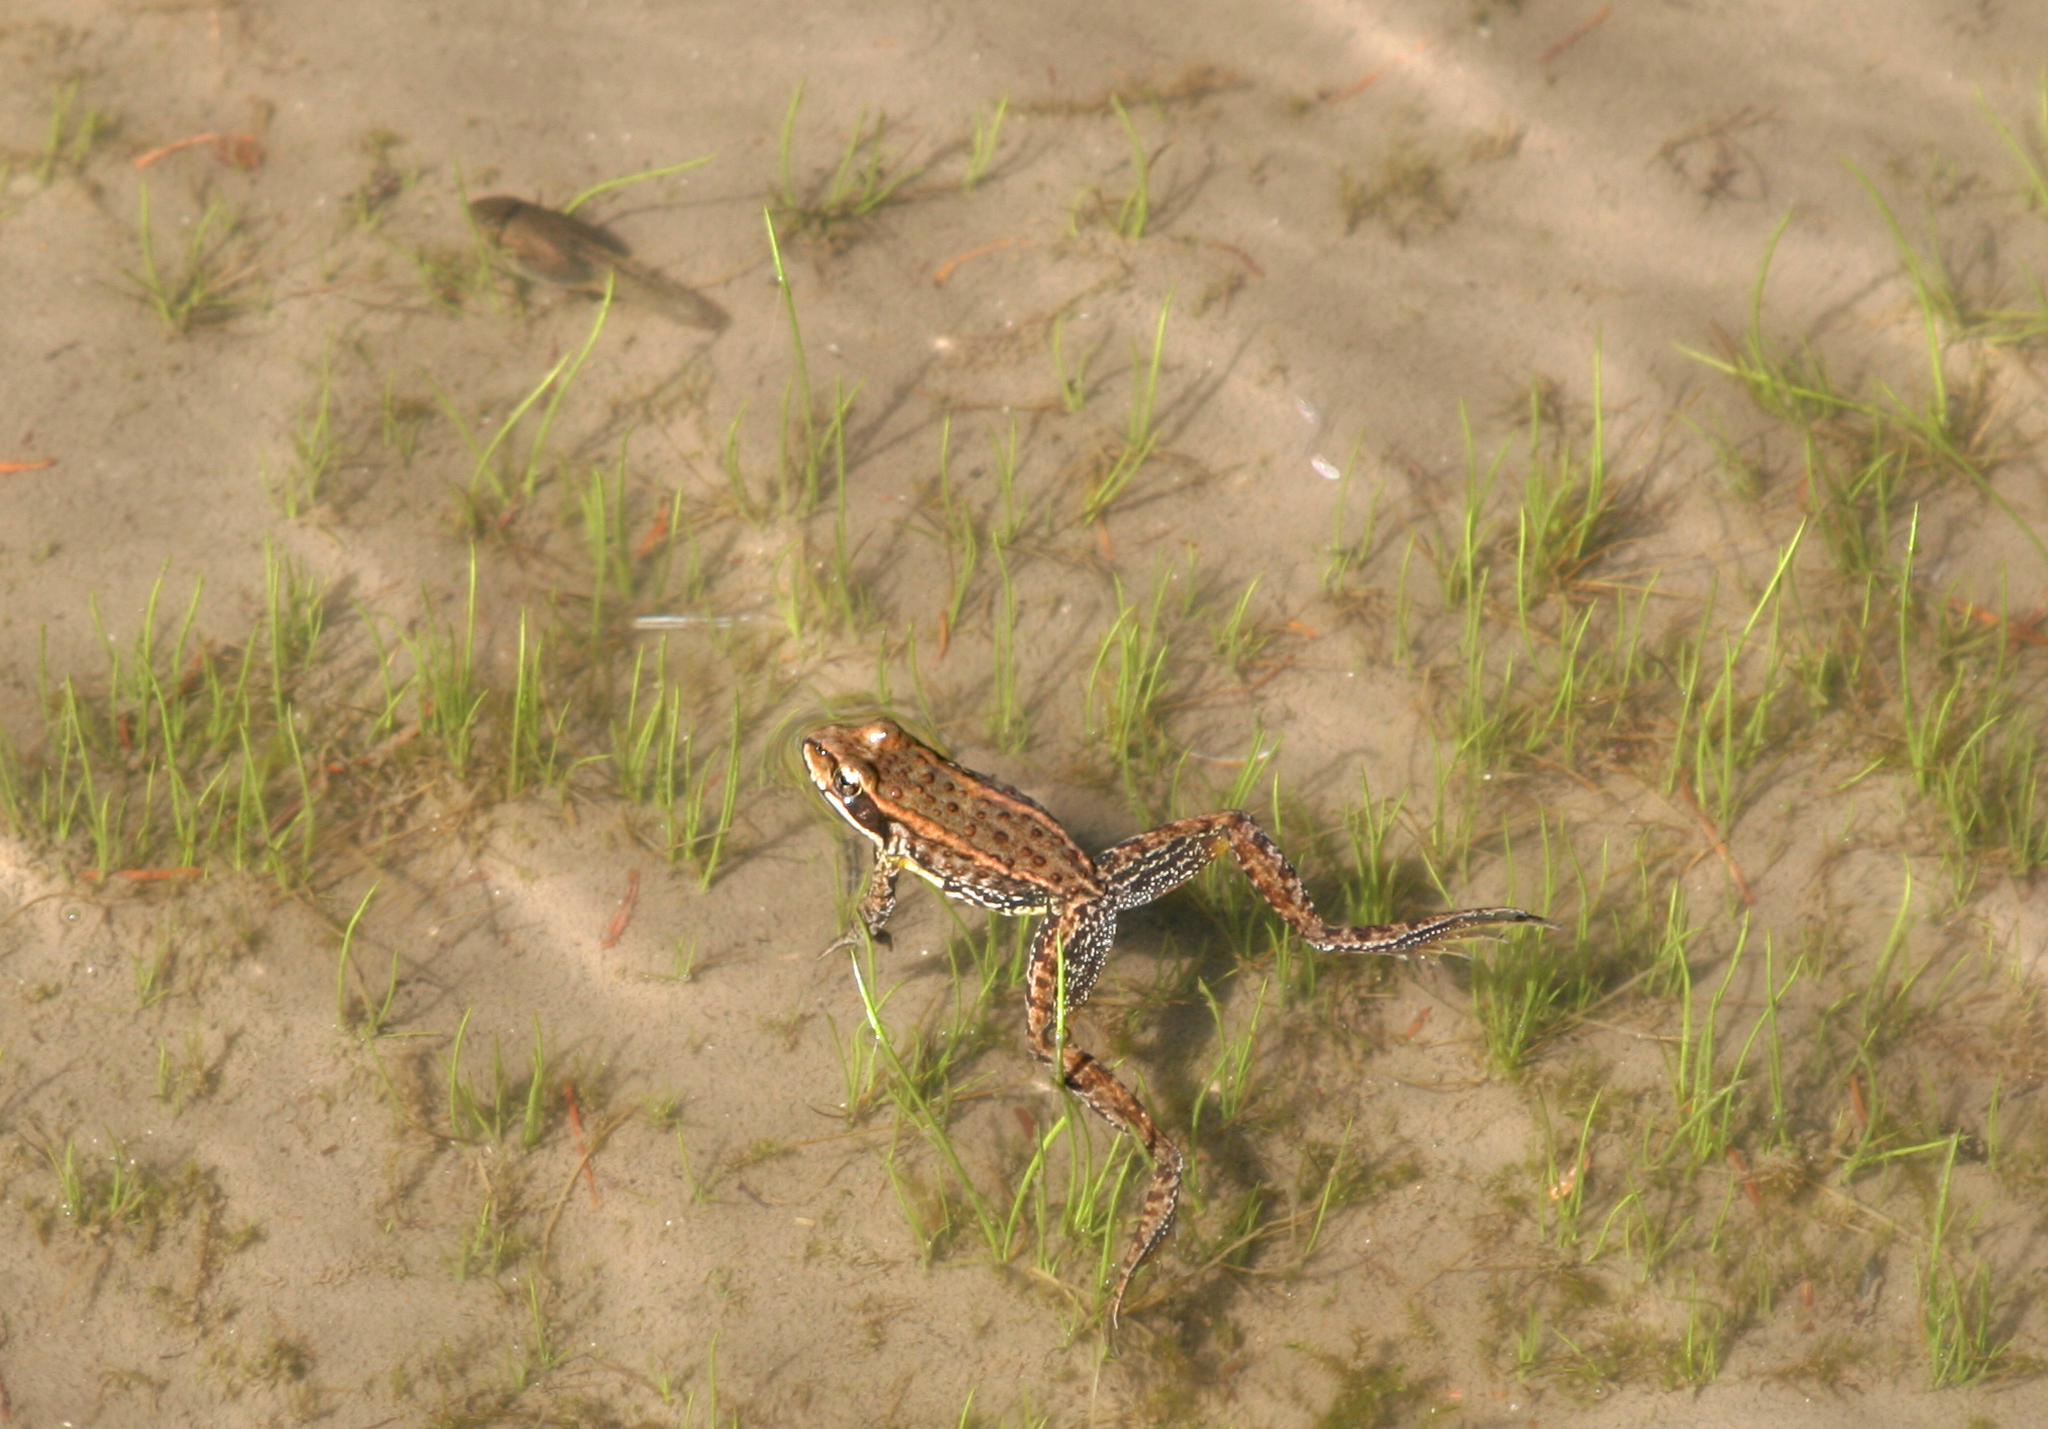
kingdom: Animalia
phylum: Chordata
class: Amphibia
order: Anura
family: Ranidae
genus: Rana
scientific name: Rana cascadae
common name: Cascades frog
